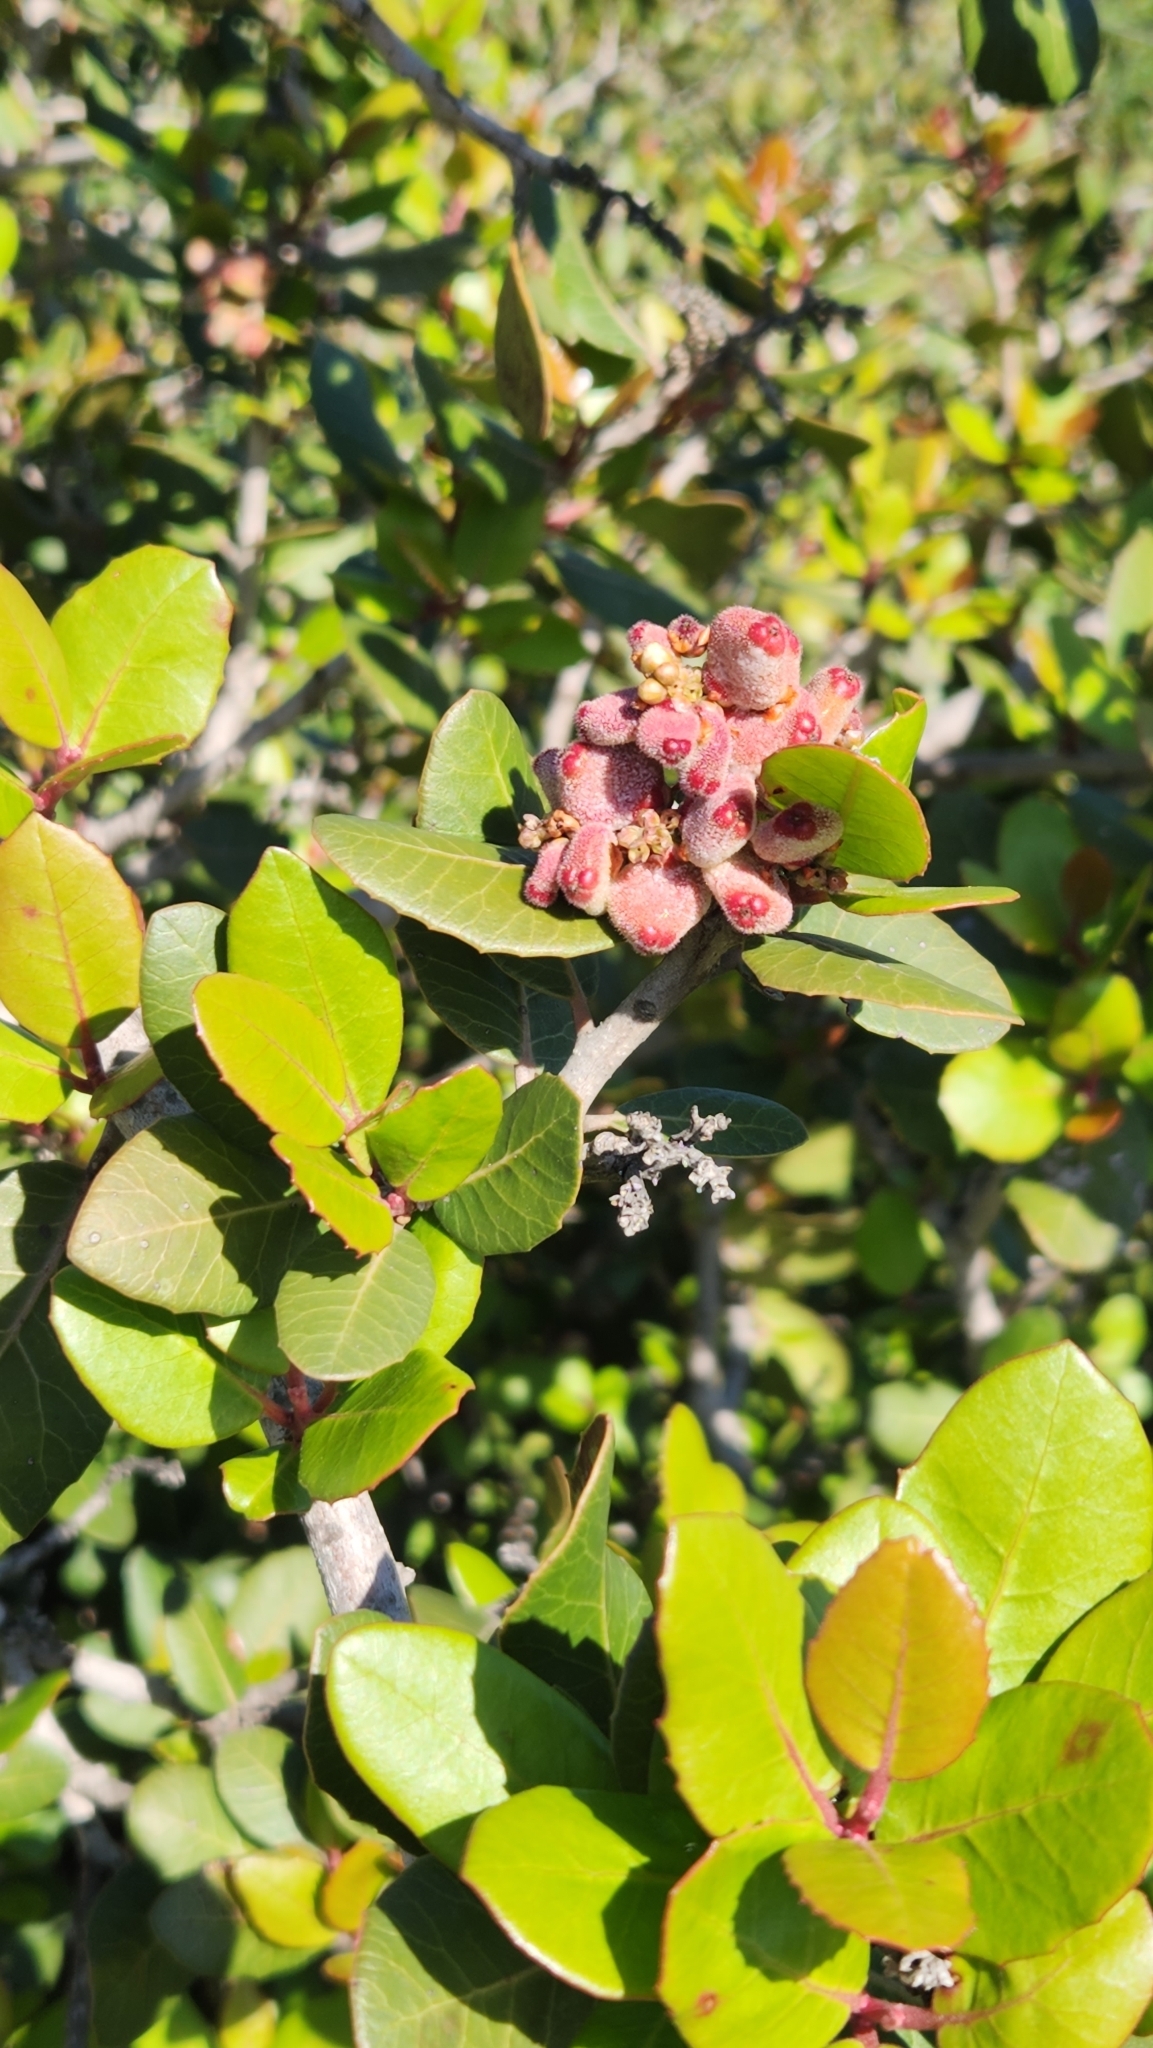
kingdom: Plantae
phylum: Tracheophyta
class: Magnoliopsida
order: Sapindales
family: Anacardiaceae
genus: Rhus
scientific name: Rhus integrifolia
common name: Lemonade sumac
